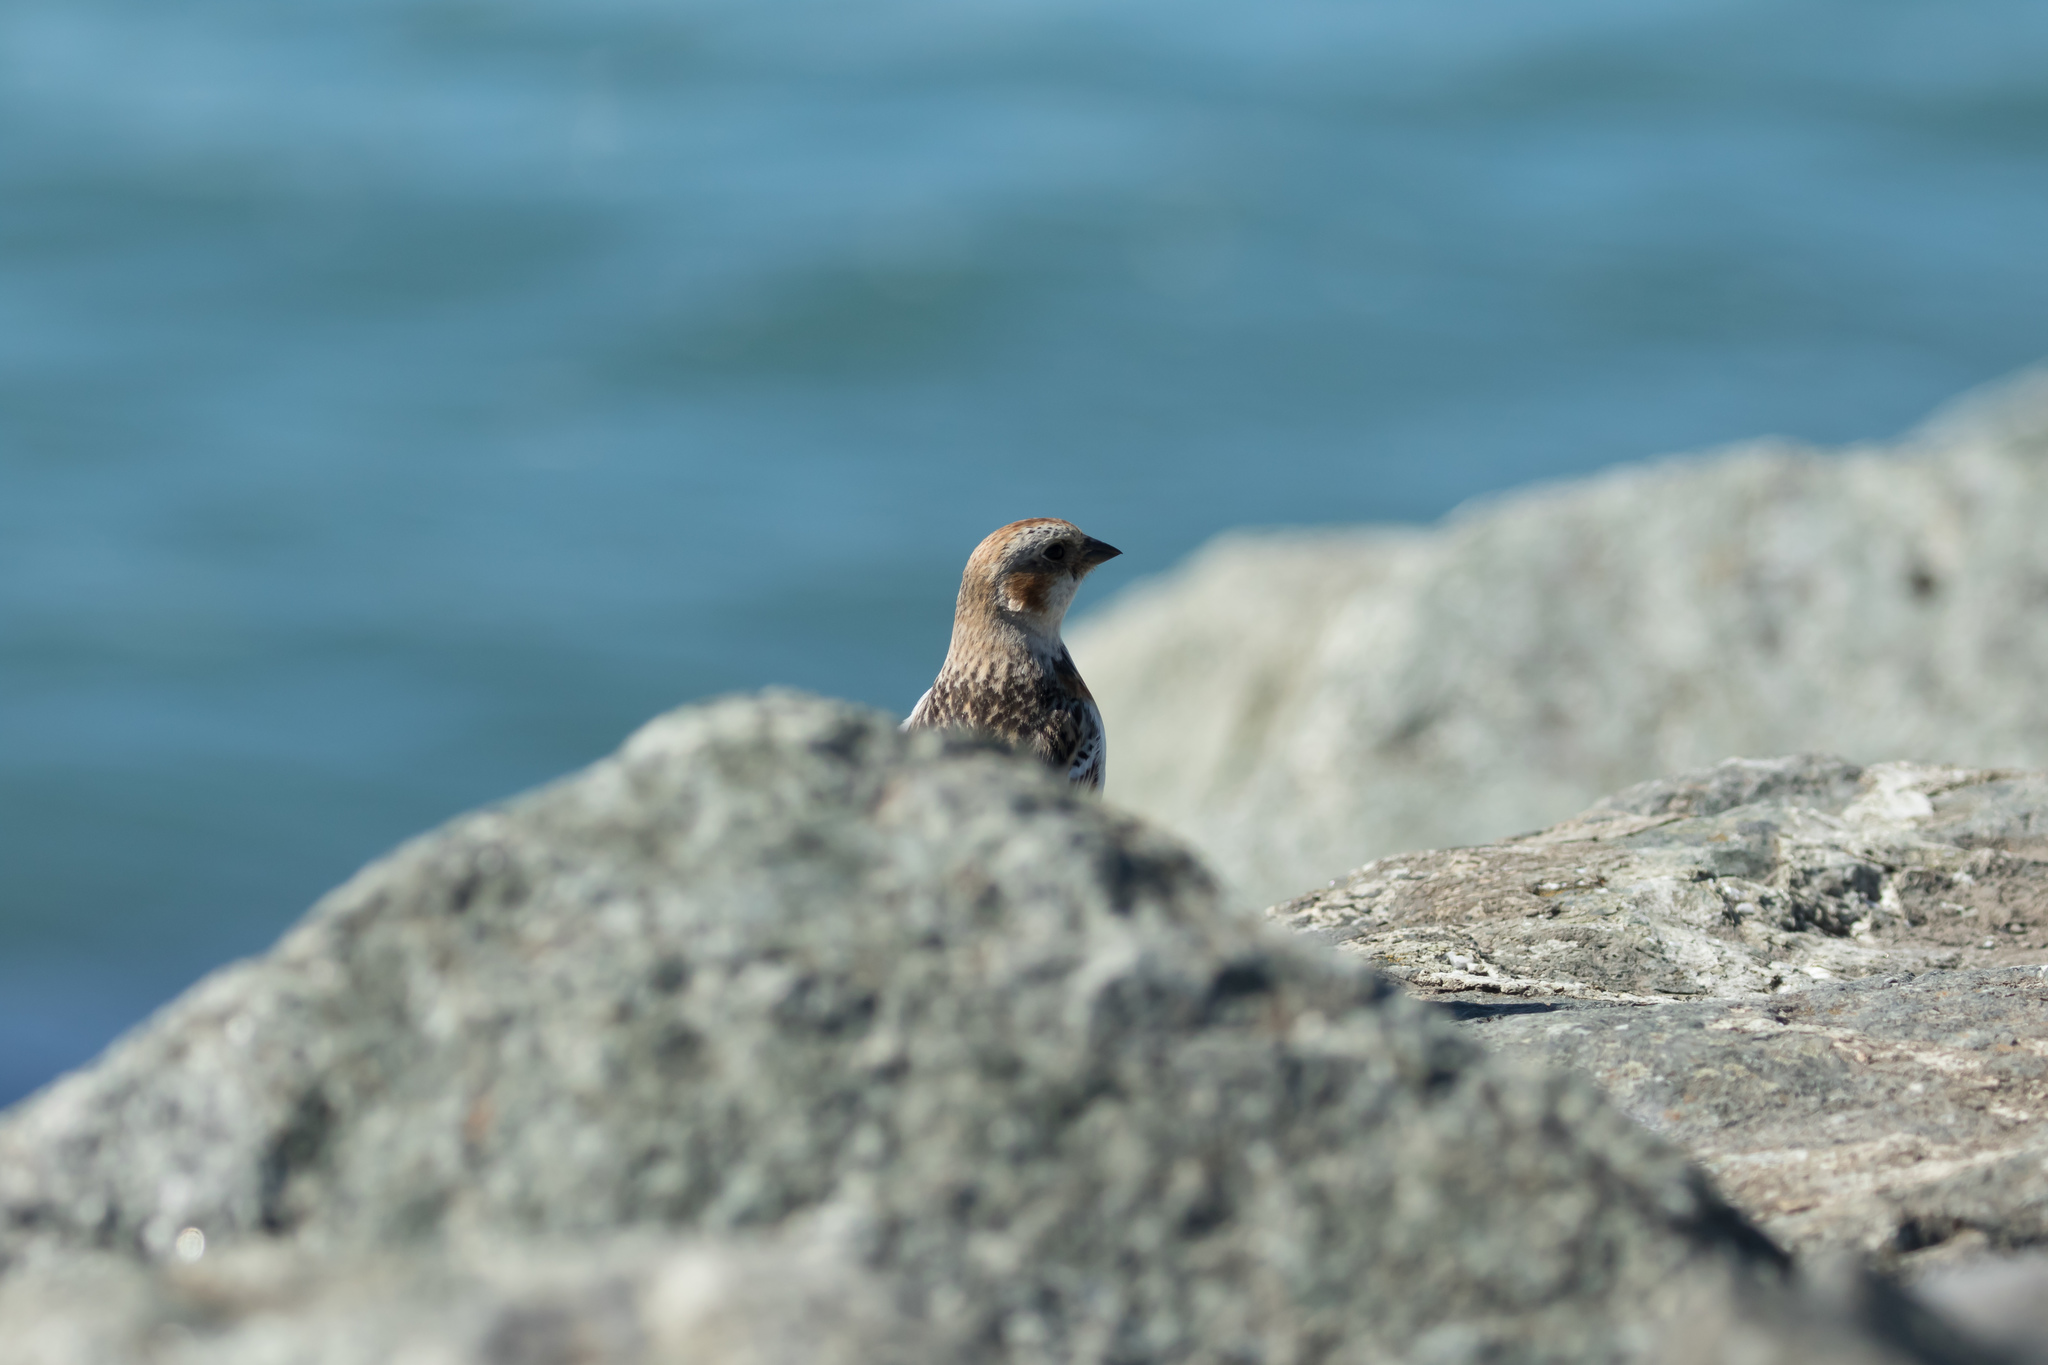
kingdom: Animalia
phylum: Chordata
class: Aves
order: Passeriformes
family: Calcariidae
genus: Plectrophenax
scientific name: Plectrophenax nivalis
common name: Snow bunting
